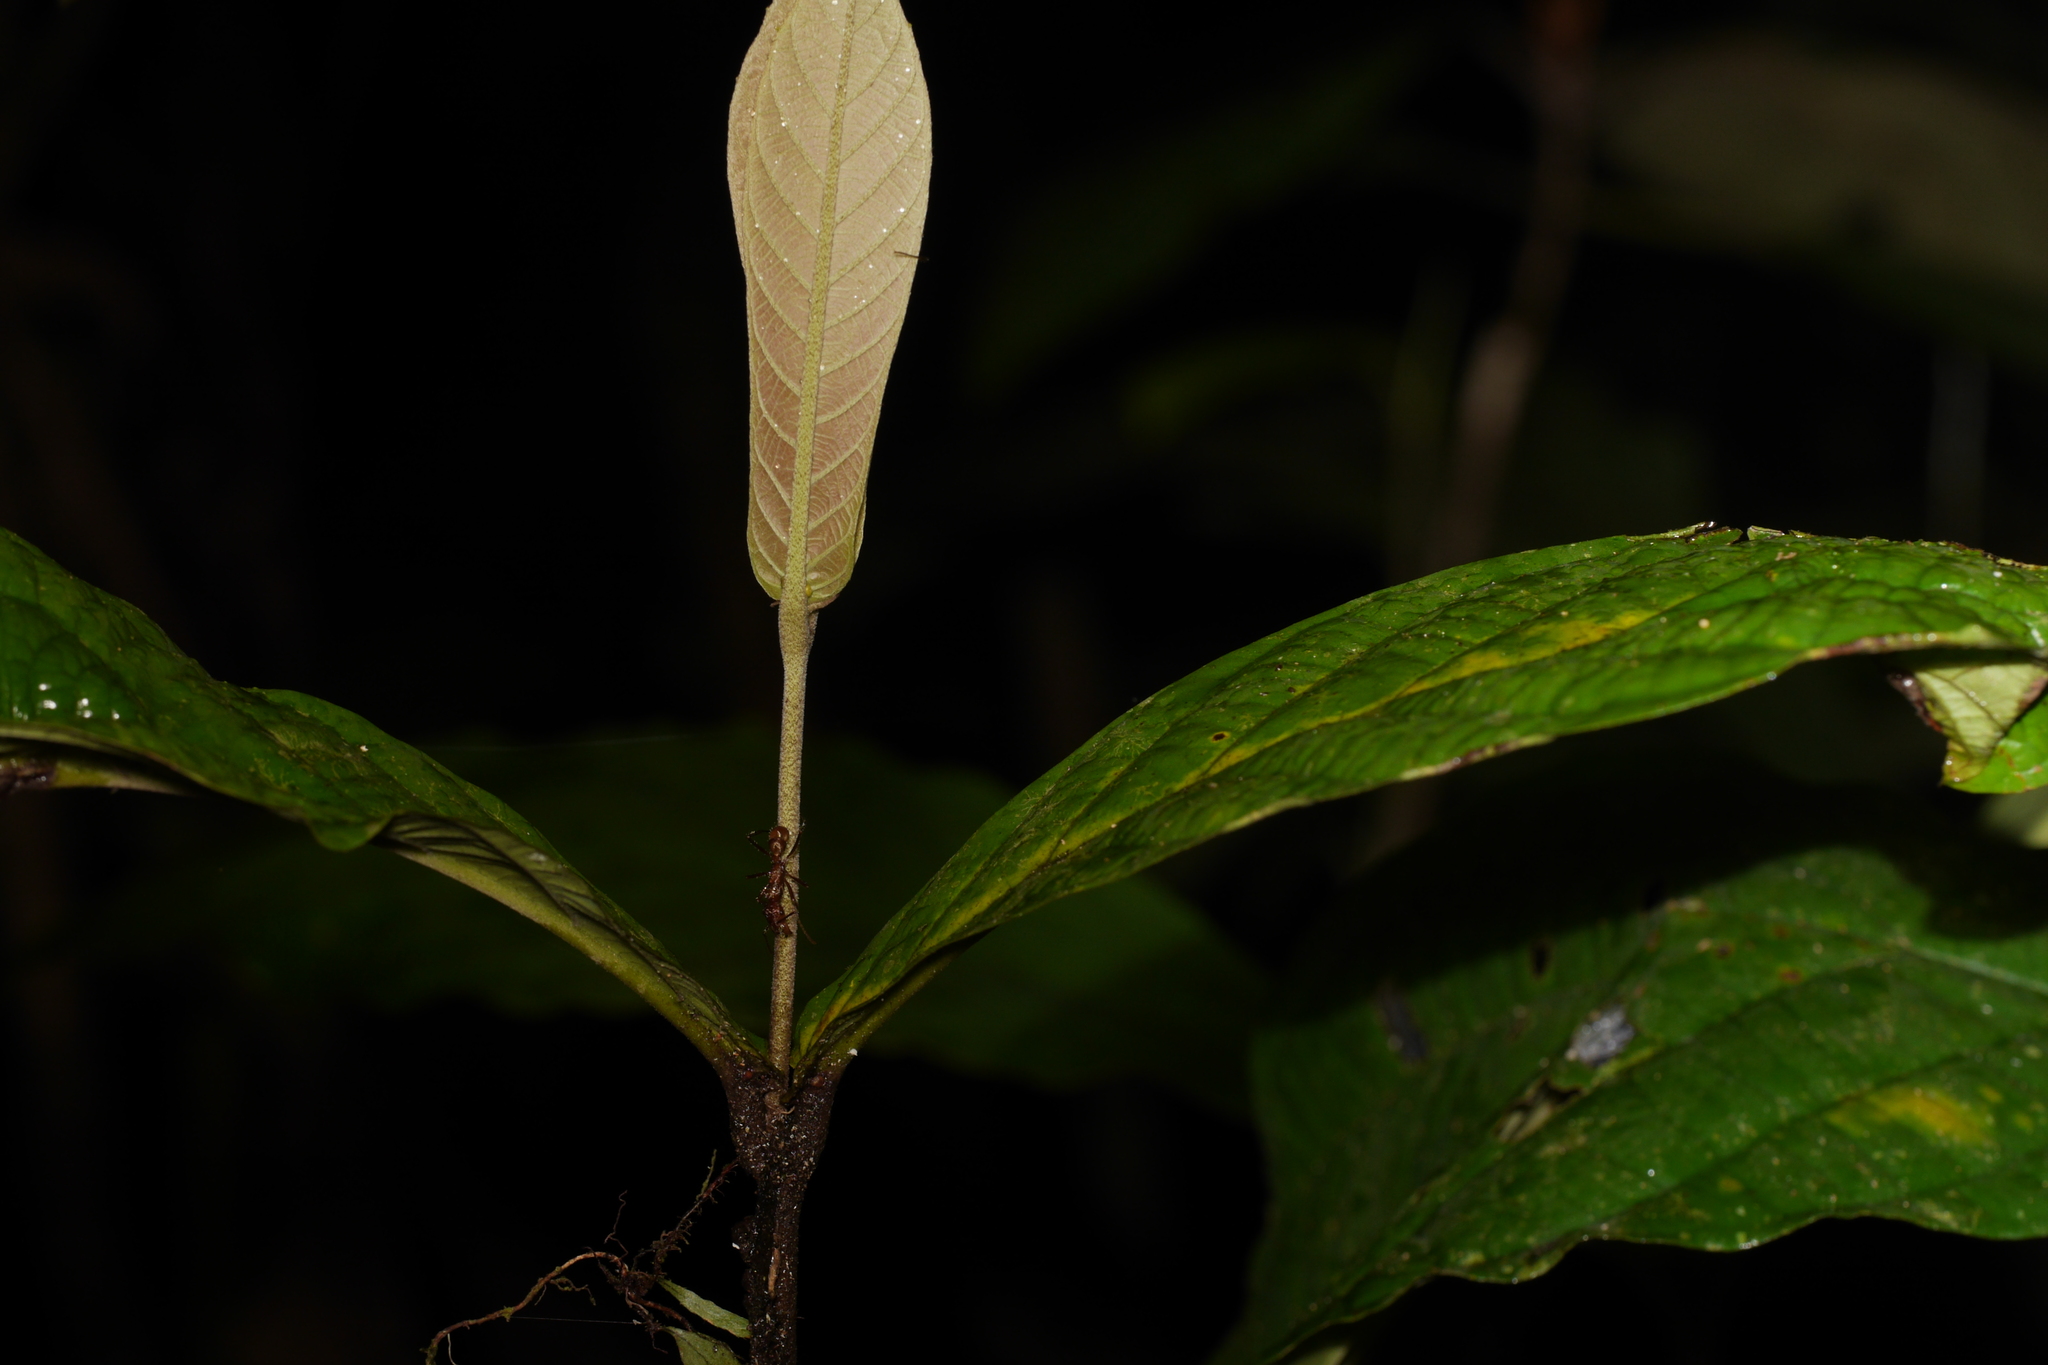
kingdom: Animalia
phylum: Arthropoda
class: Insecta
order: Hymenoptera
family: Formicidae
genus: Ectatomma
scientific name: Ectatomma tuberculatum
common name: Ant
